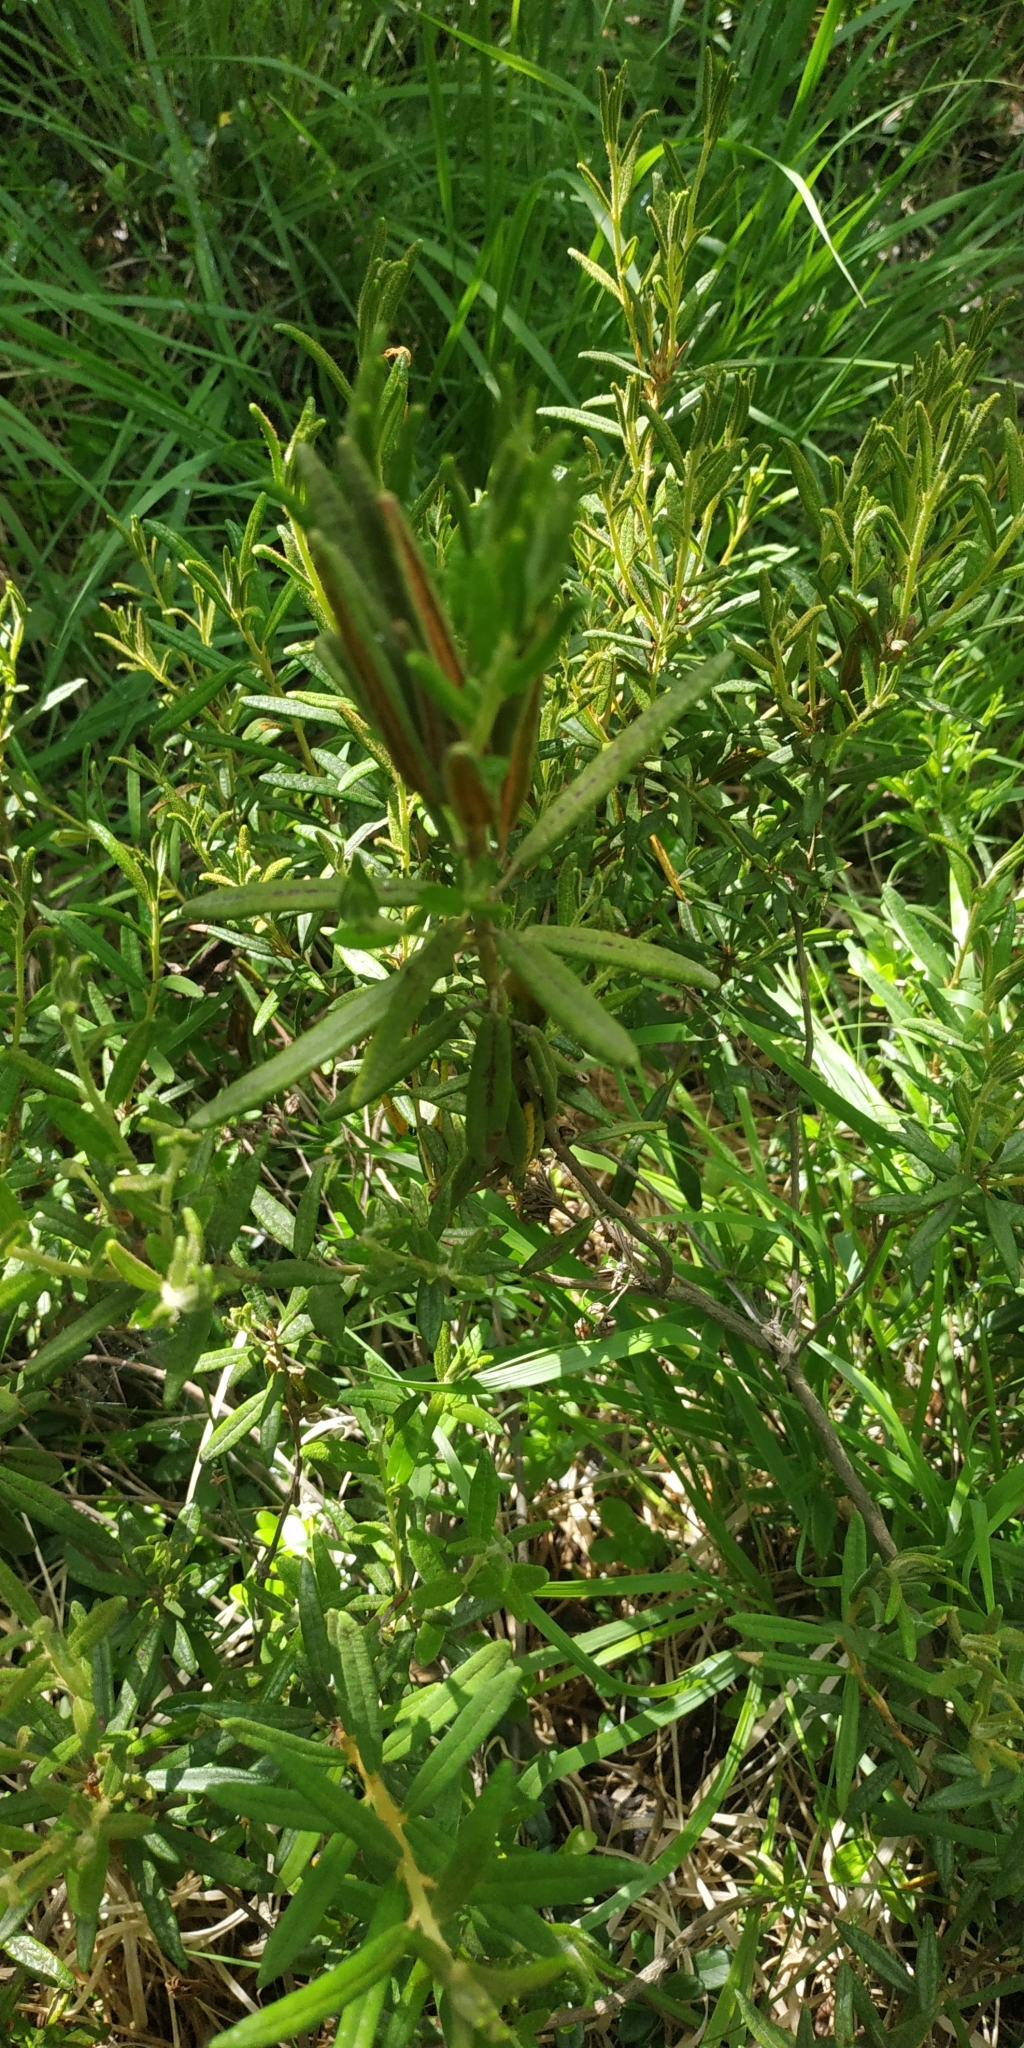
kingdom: Plantae
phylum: Tracheophyta
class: Magnoliopsida
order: Ericales
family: Ericaceae
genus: Rhododendron
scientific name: Rhododendron tomentosum
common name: Marsh labrador tea
